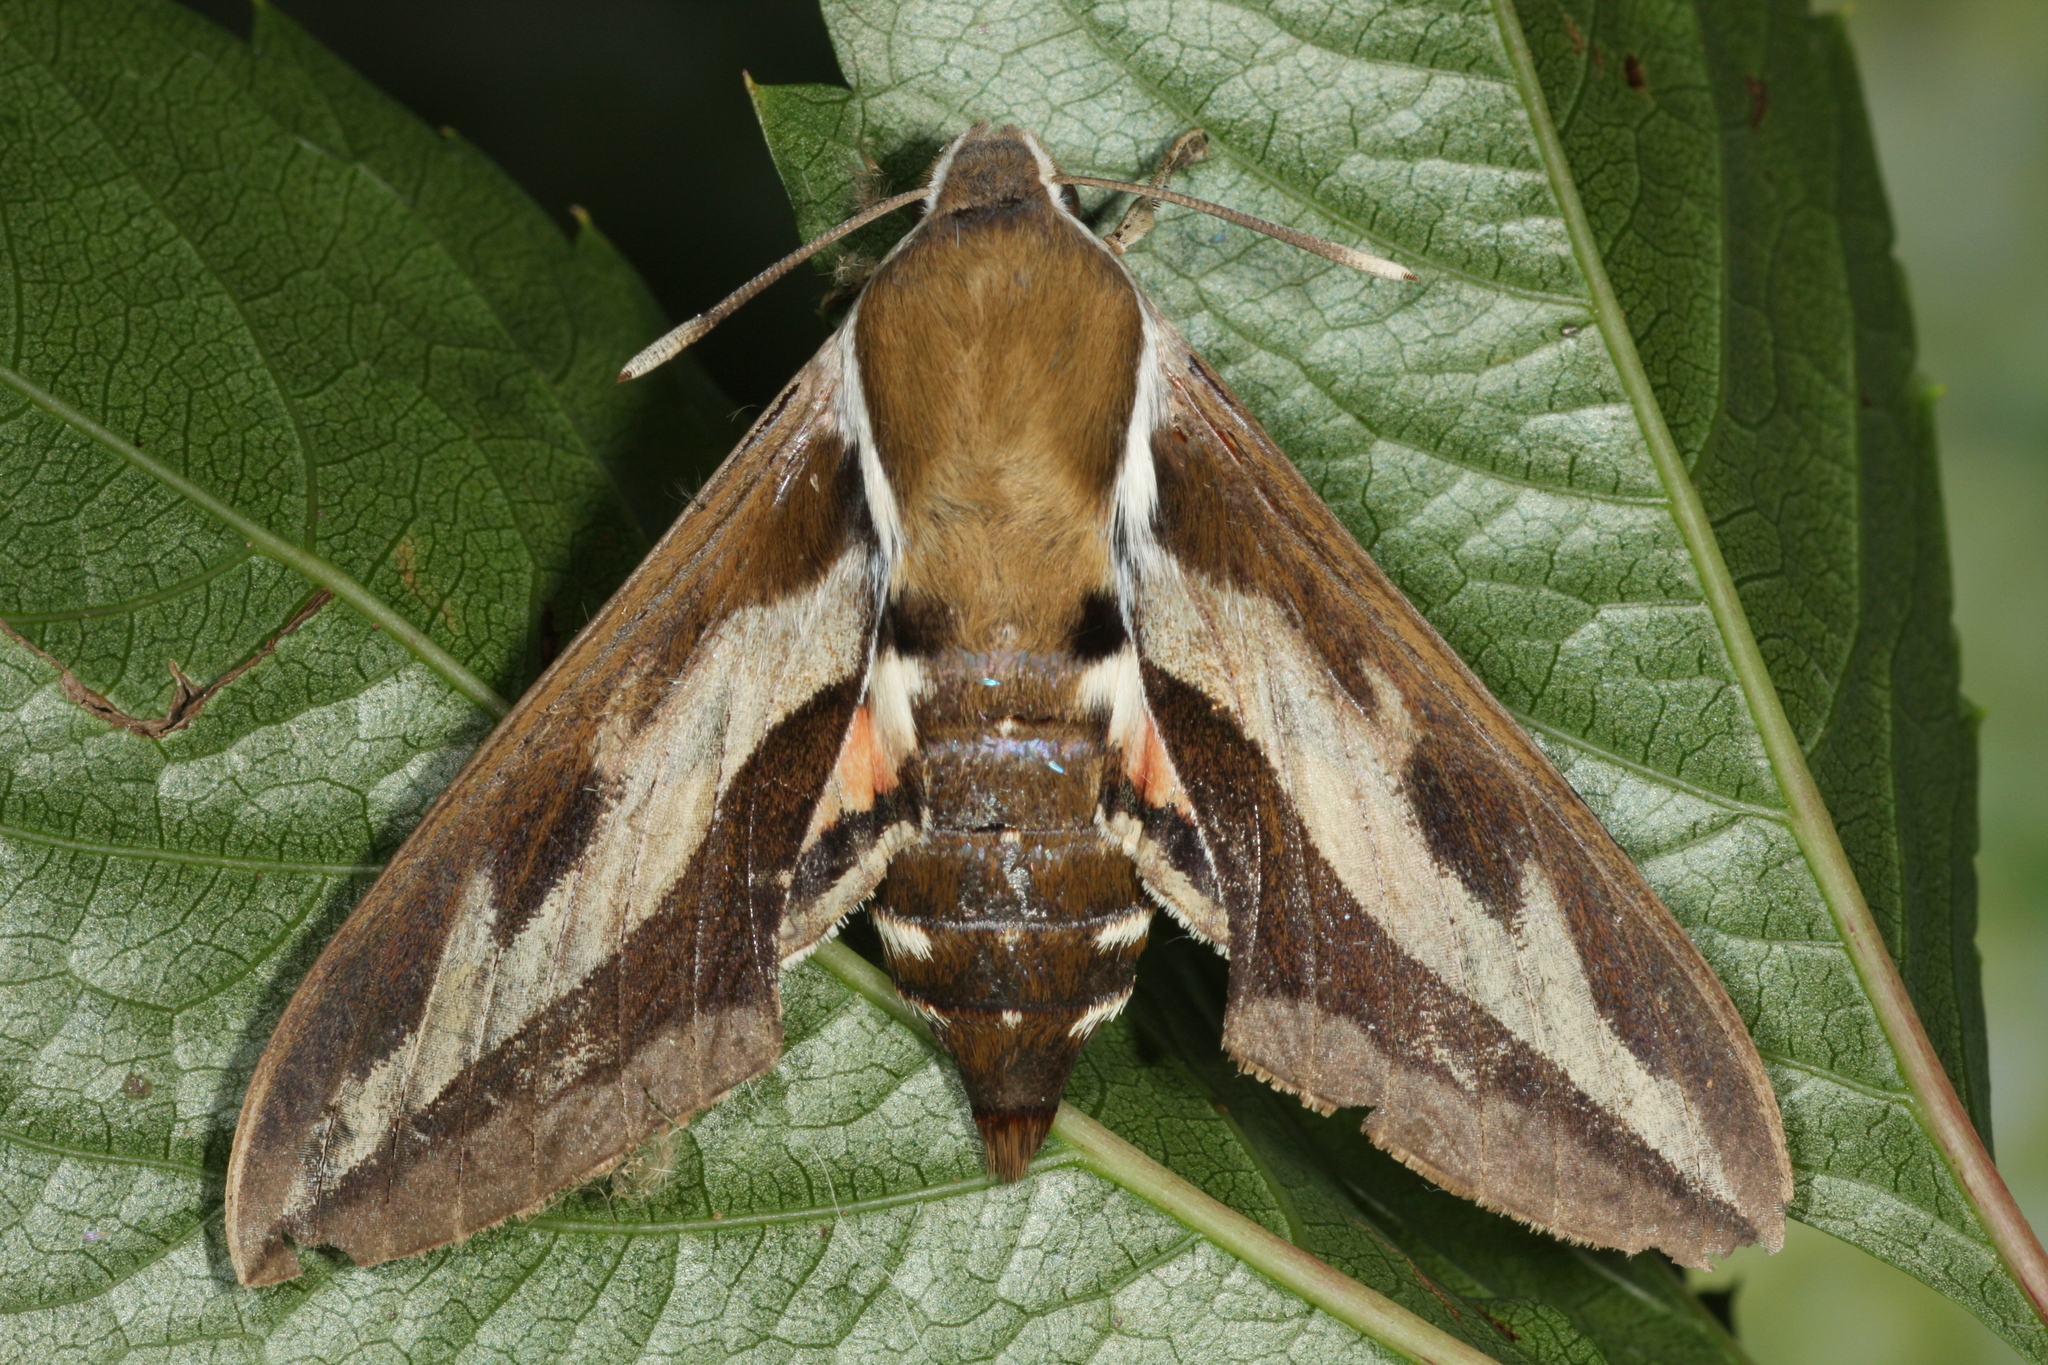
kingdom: Animalia
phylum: Arthropoda
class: Insecta
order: Lepidoptera
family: Sphingidae
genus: Hyles
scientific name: Hyles gallii
